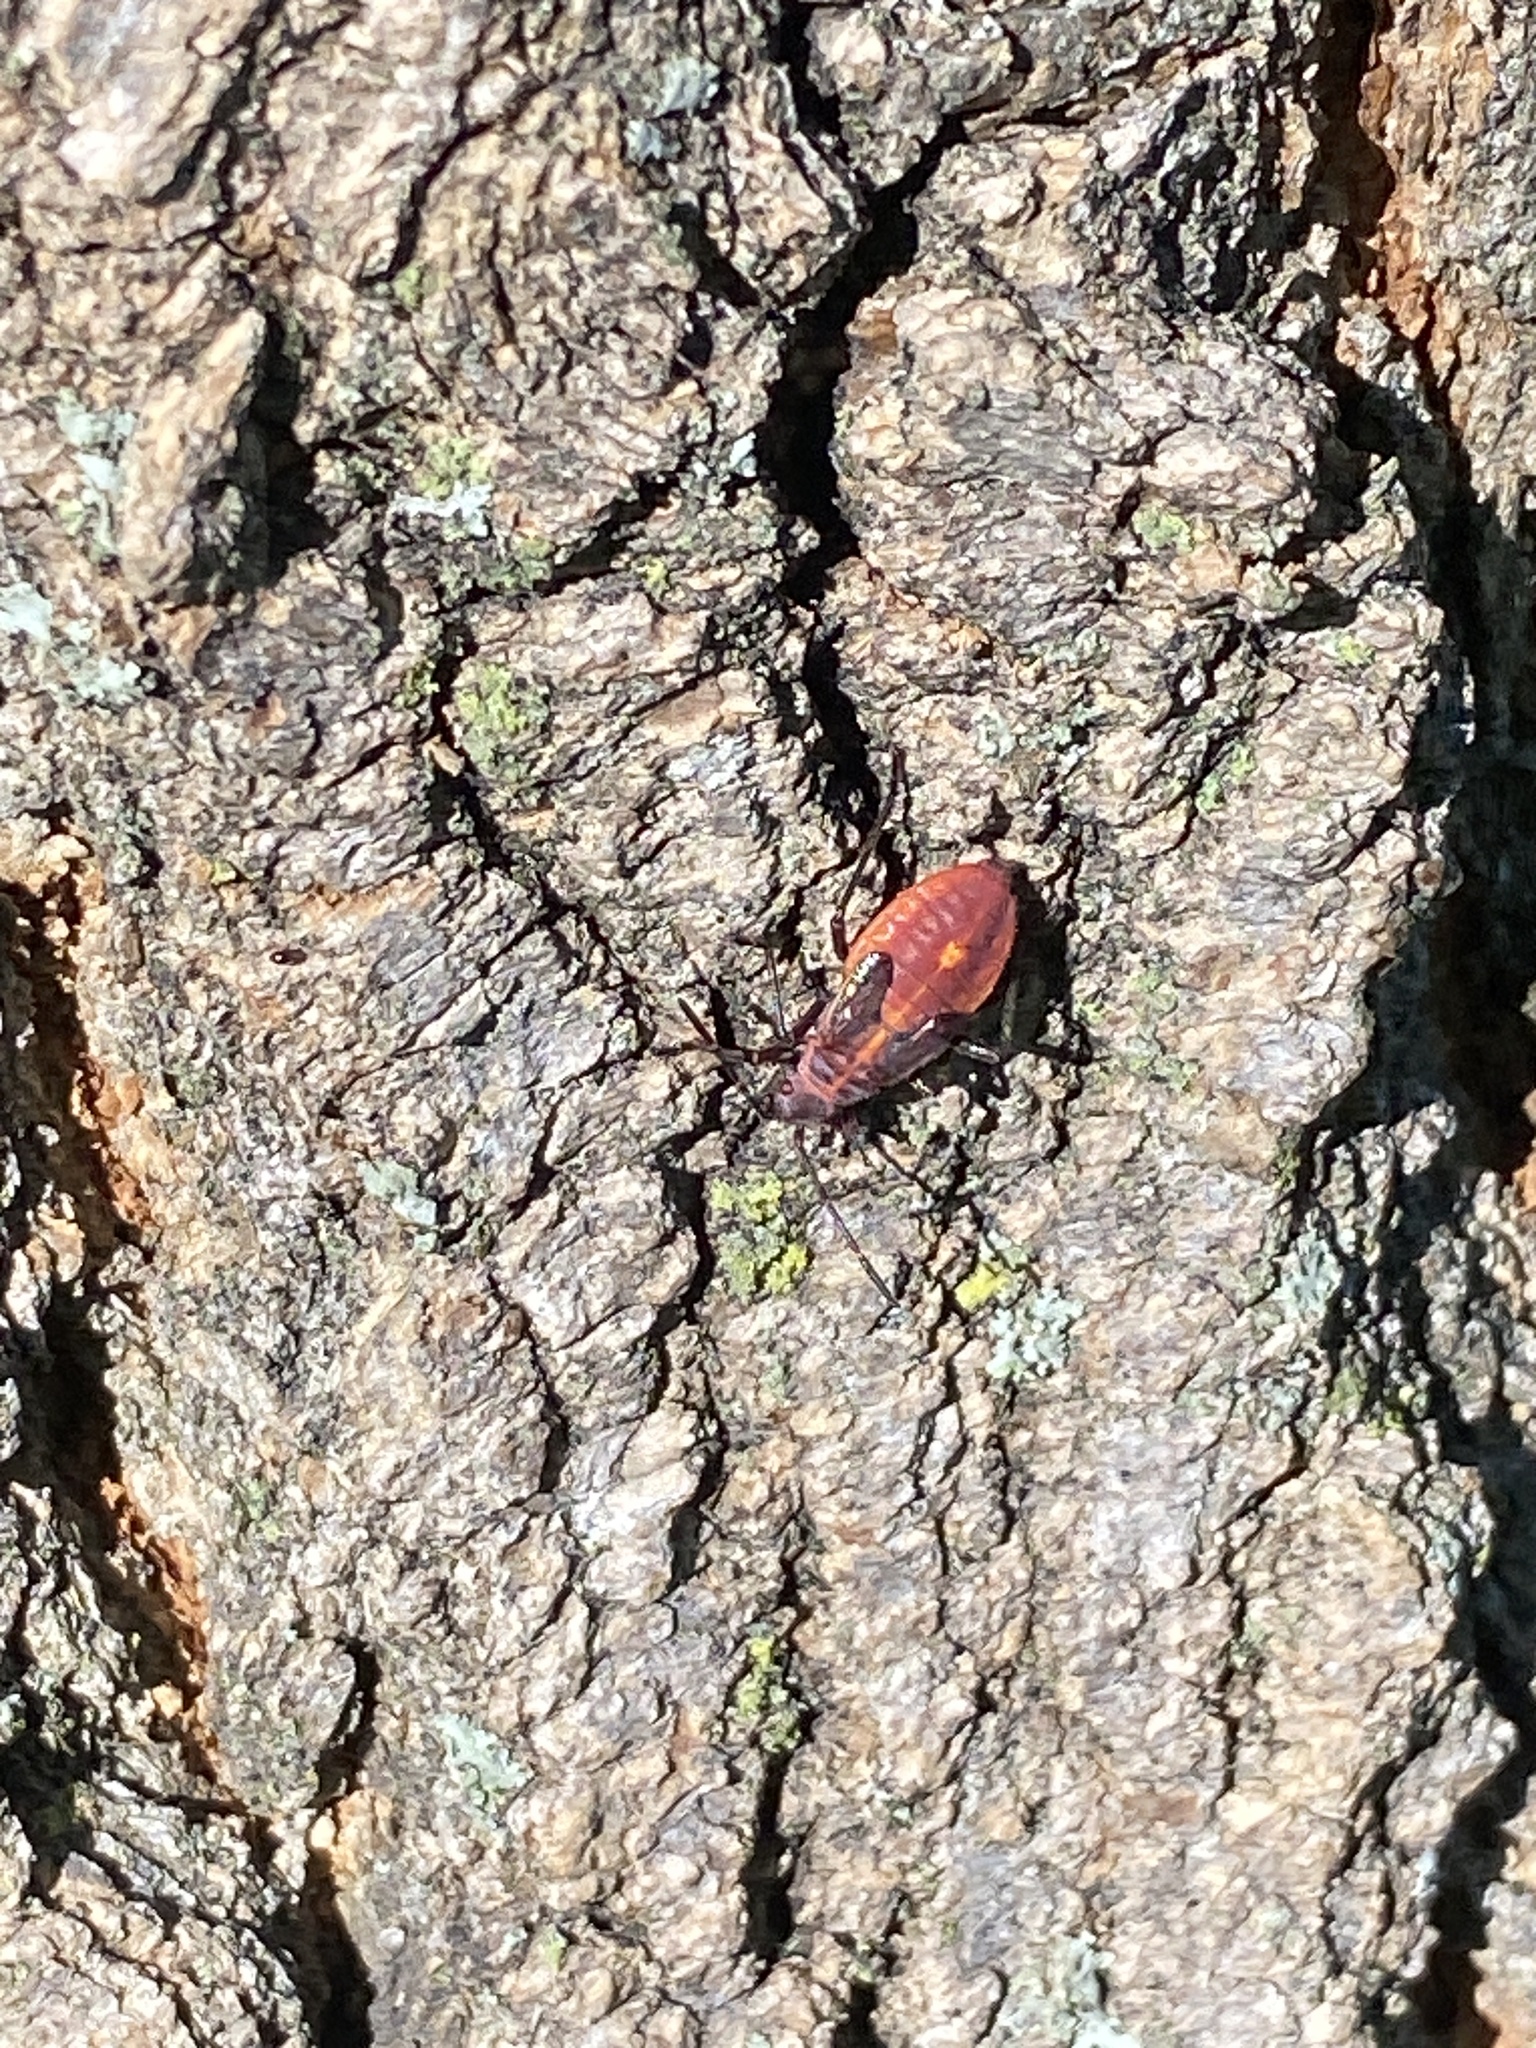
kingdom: Animalia
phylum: Arthropoda
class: Insecta
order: Hemiptera
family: Rhopalidae
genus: Boisea
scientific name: Boisea trivittata
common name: Boxelder bug
